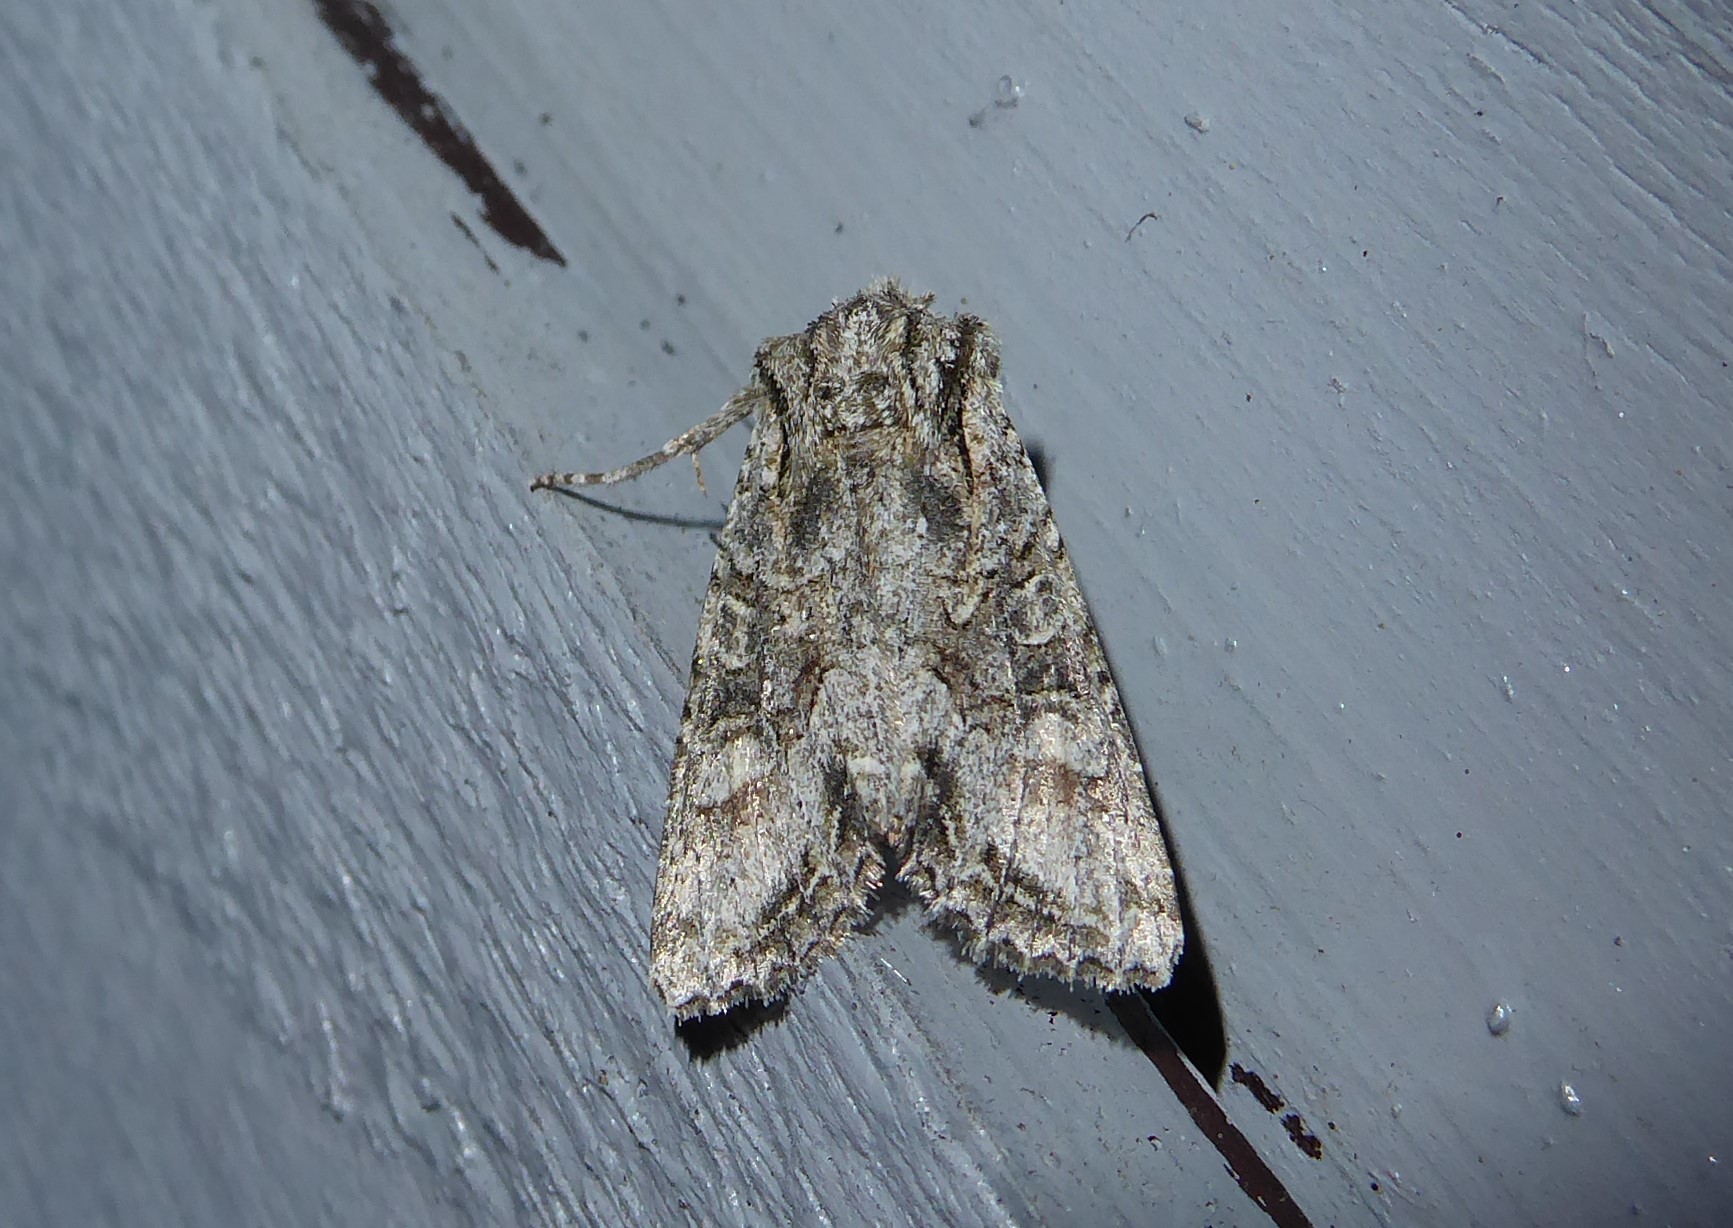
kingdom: Animalia
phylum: Arthropoda
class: Insecta
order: Lepidoptera
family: Noctuidae
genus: Ichneutica
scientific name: Ichneutica mutans
